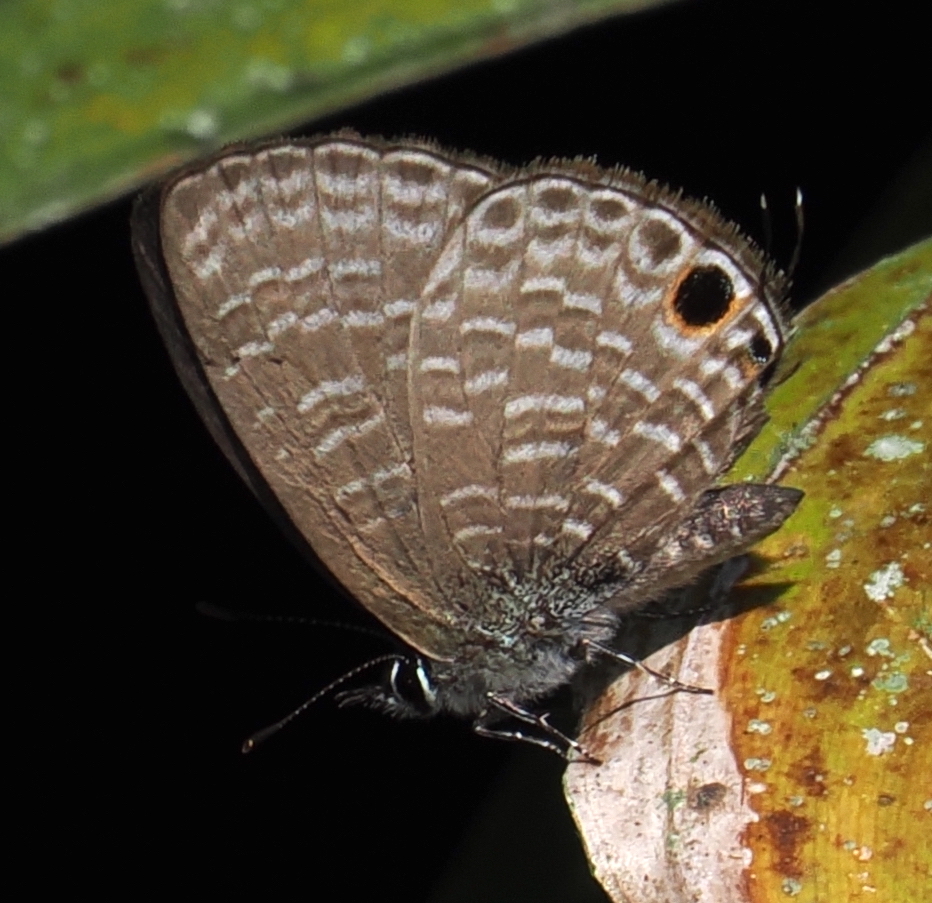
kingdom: Animalia
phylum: Arthropoda
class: Insecta
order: Lepidoptera
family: Lycaenidae
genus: Nacaduba
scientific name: Nacaduba beroe
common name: Opaque sixline blue
